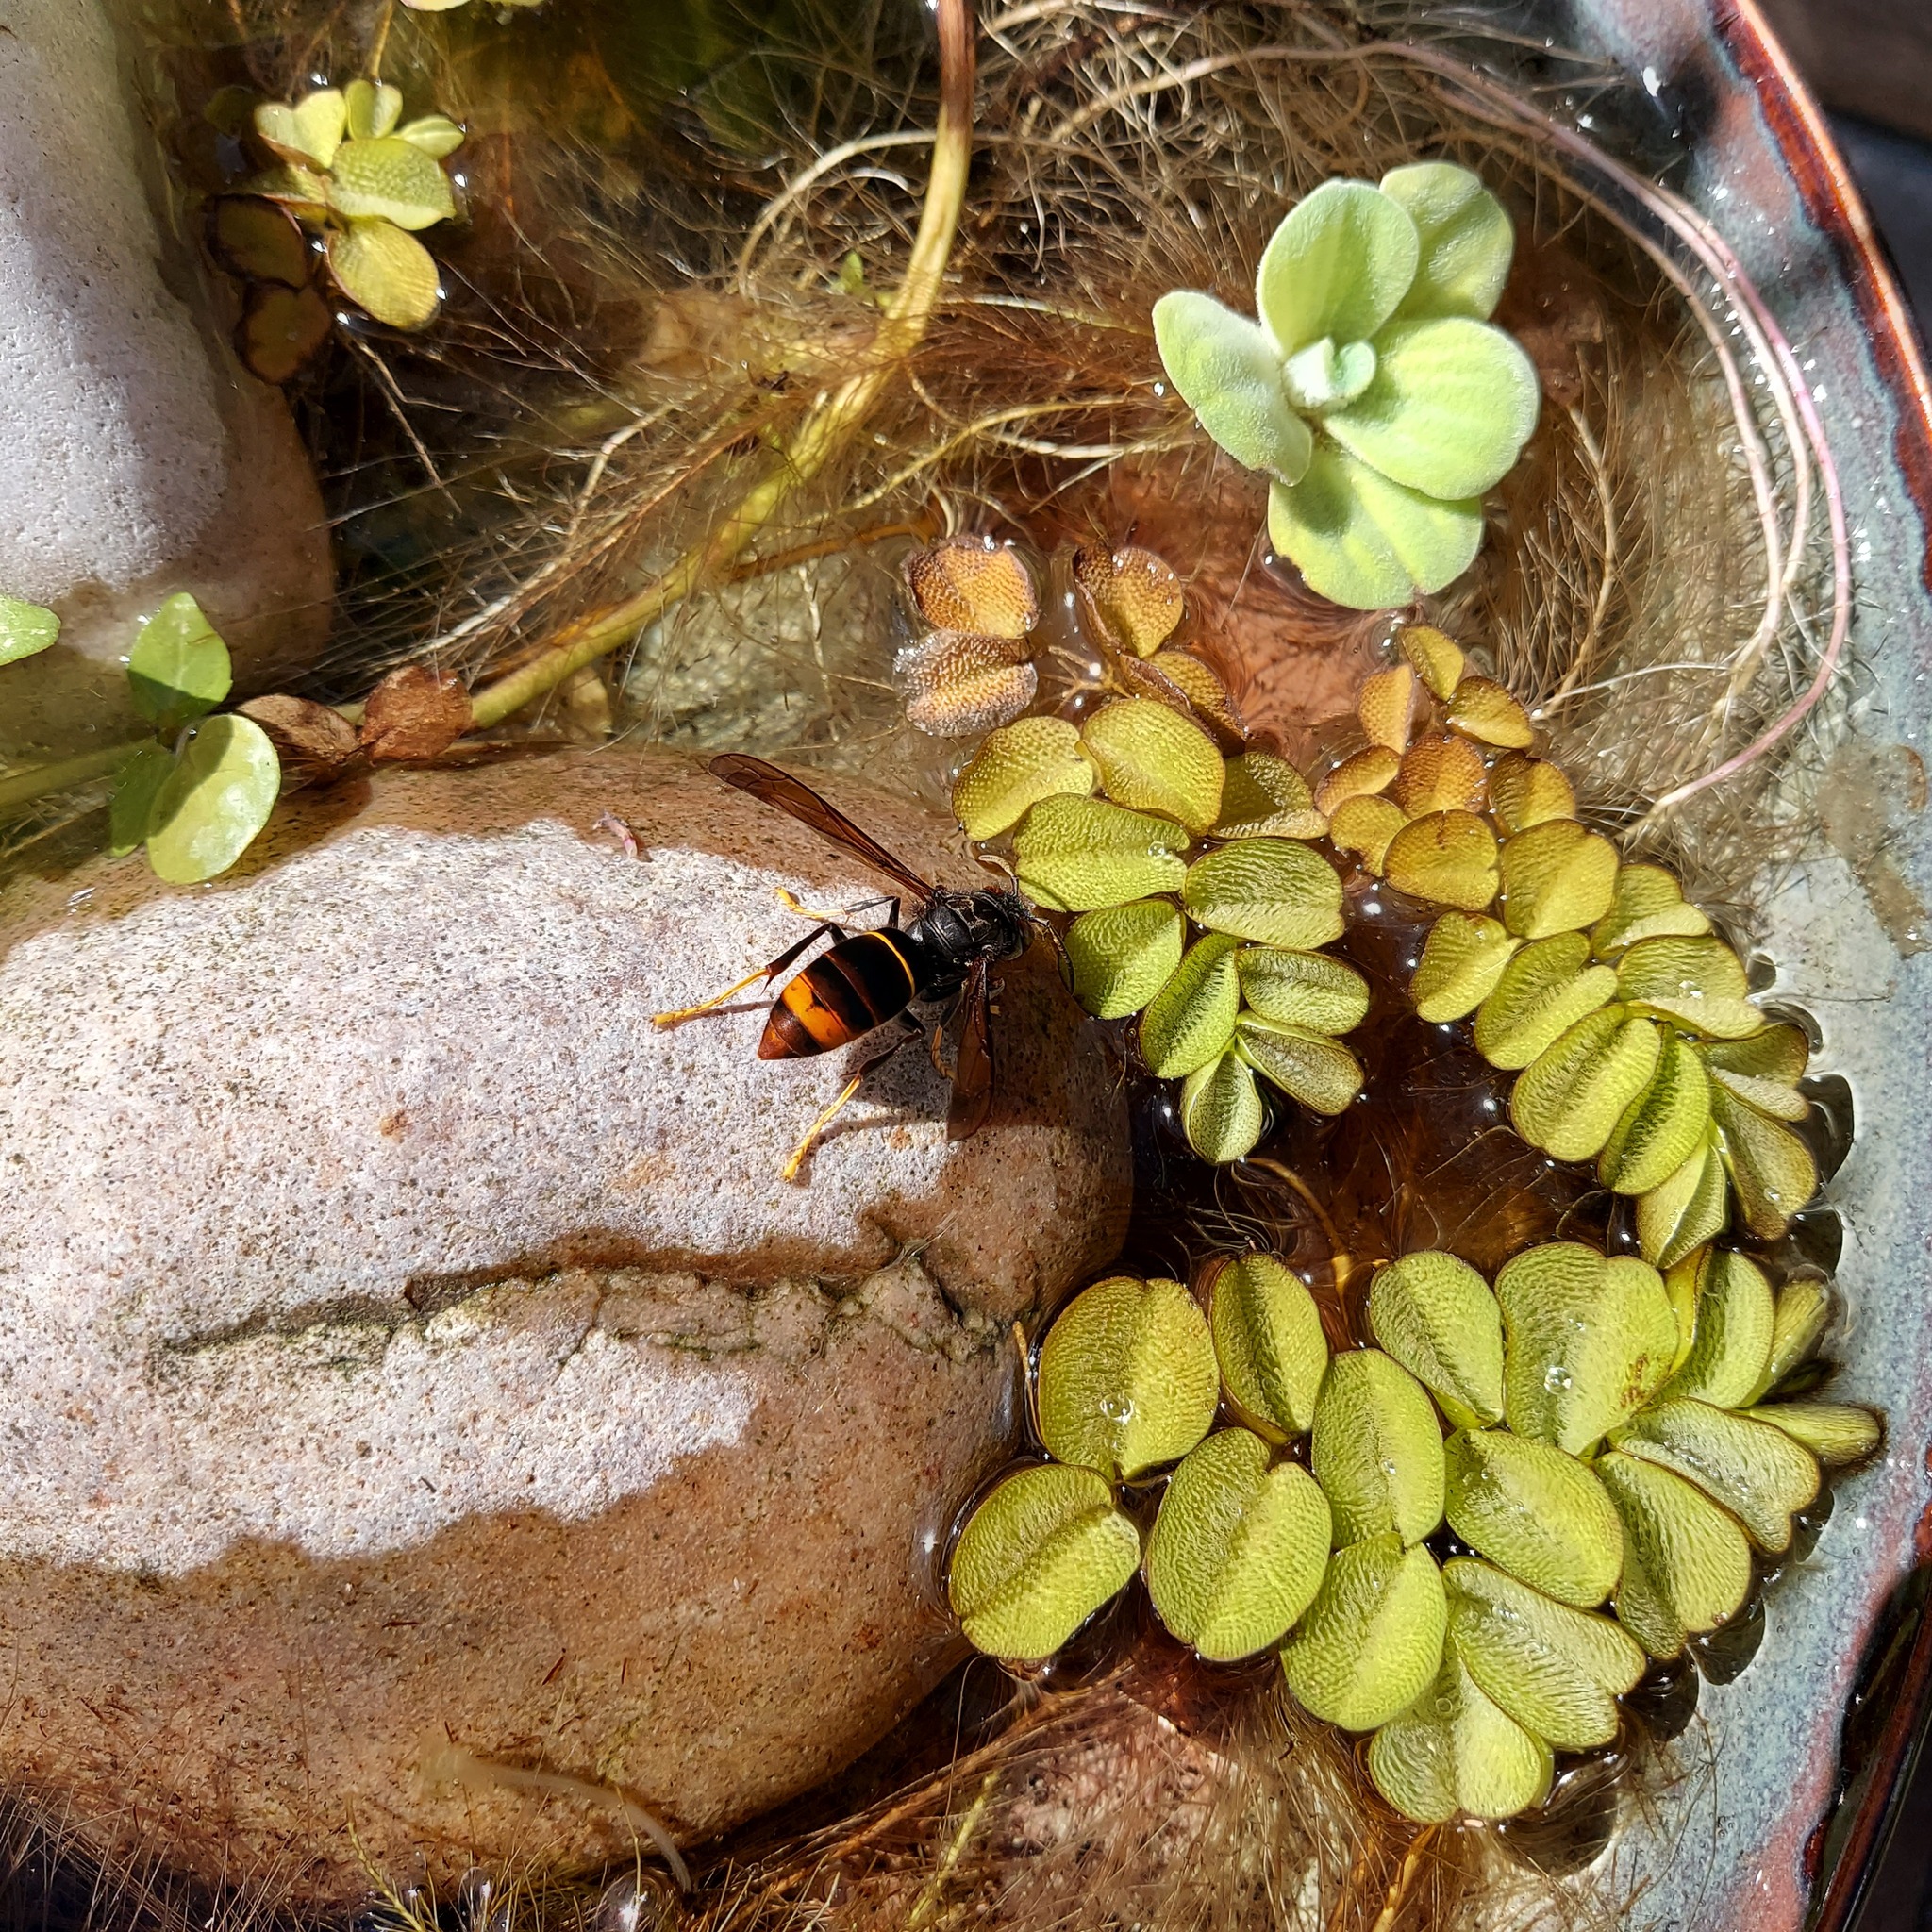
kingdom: Animalia
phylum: Arthropoda
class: Insecta
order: Hymenoptera
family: Vespidae
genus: Vespa
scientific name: Vespa velutina
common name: Asian hornet
